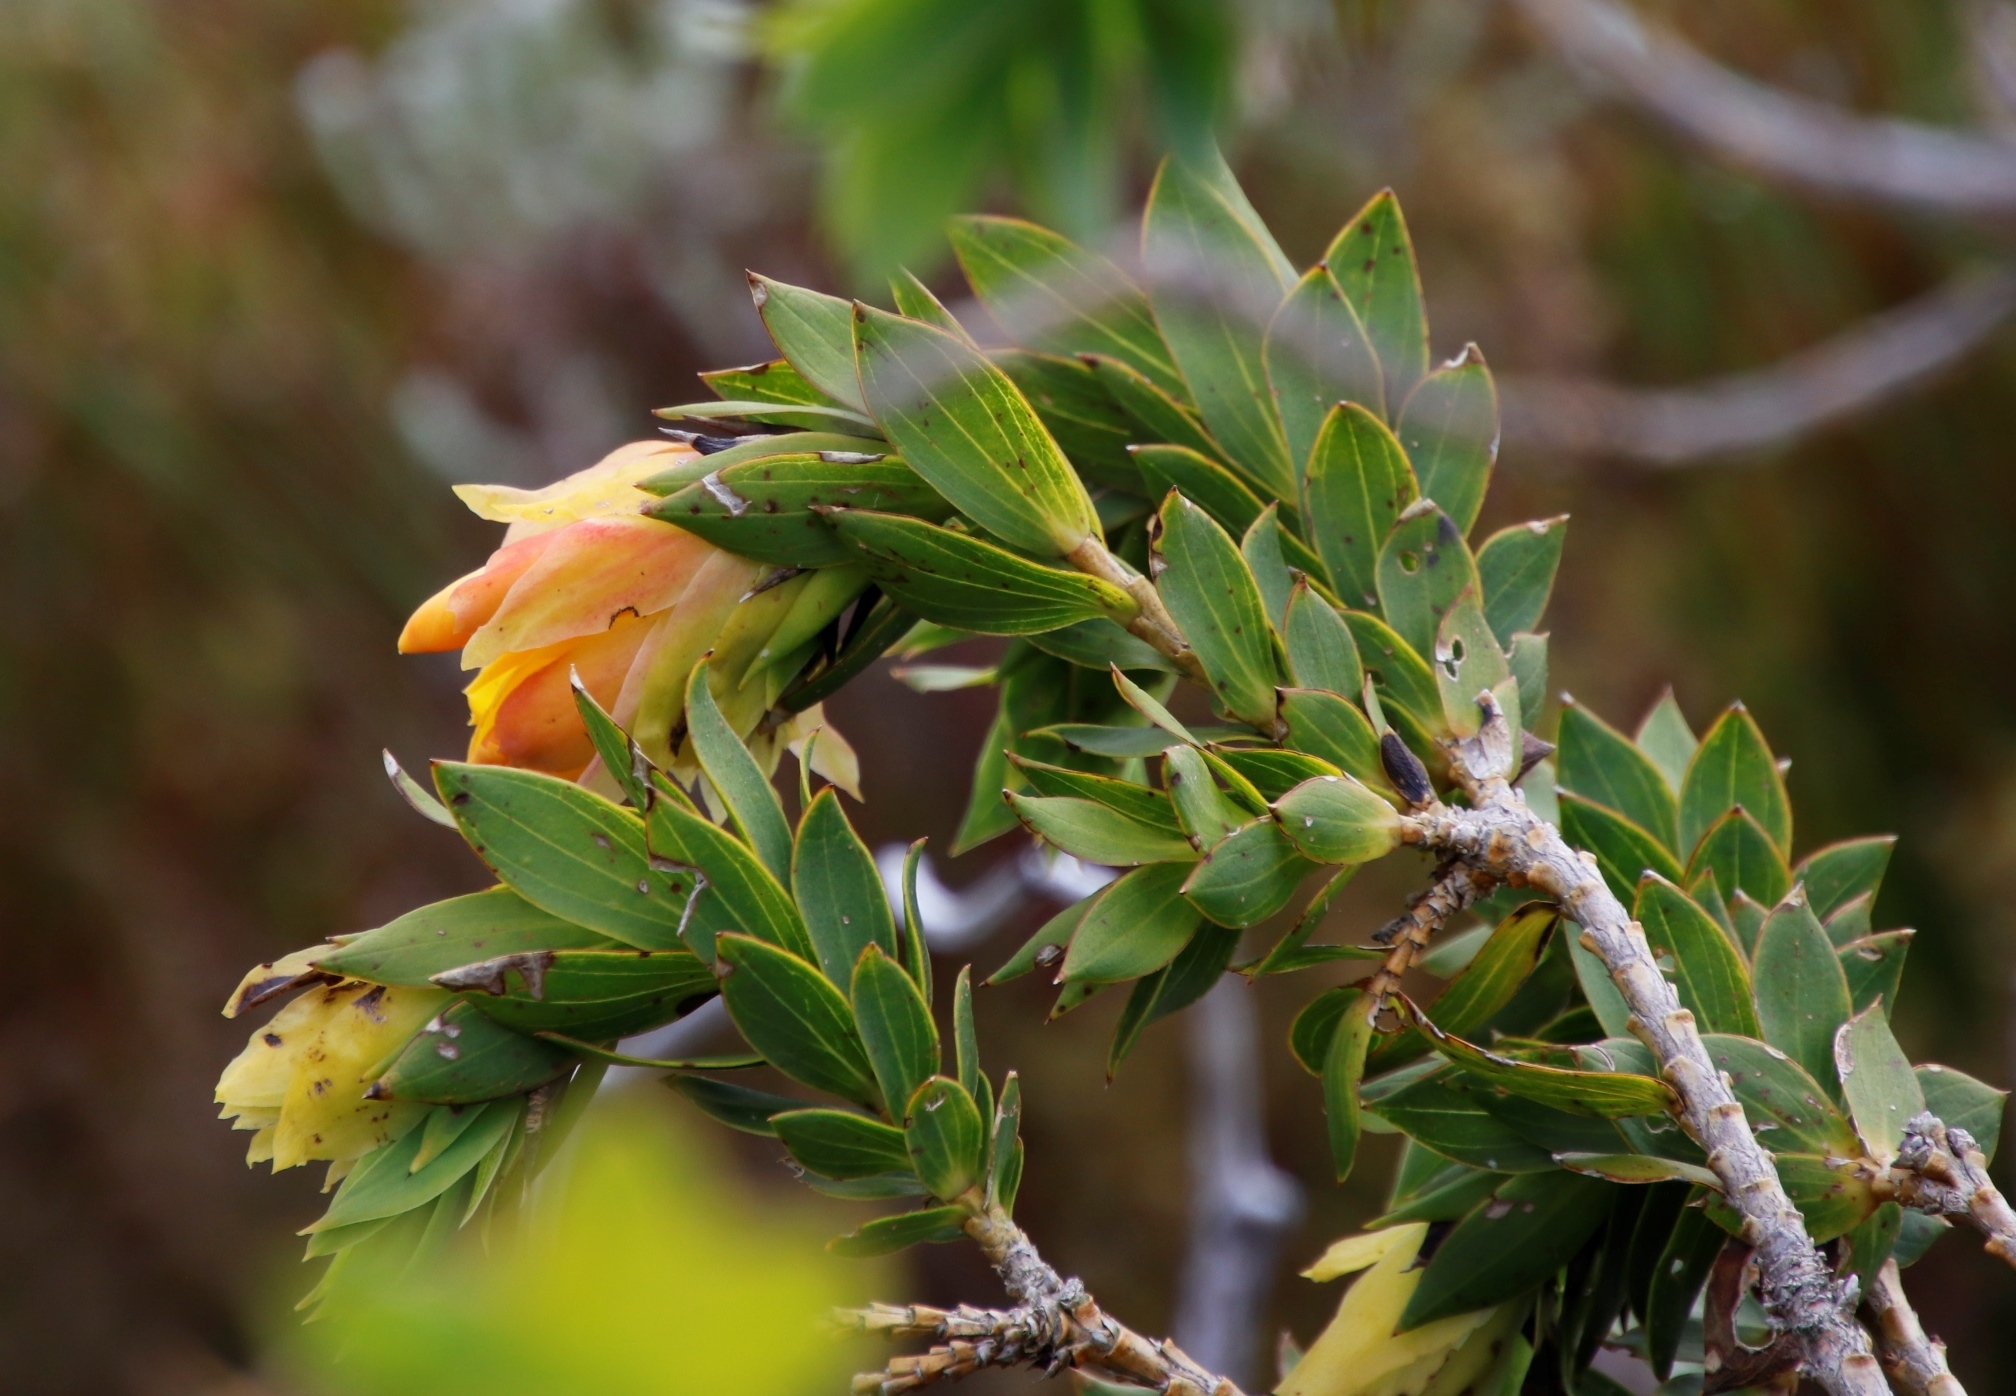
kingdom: Plantae
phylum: Tracheophyta
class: Magnoliopsida
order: Fabales
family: Fabaceae
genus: Liparia
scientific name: Liparia splendens
